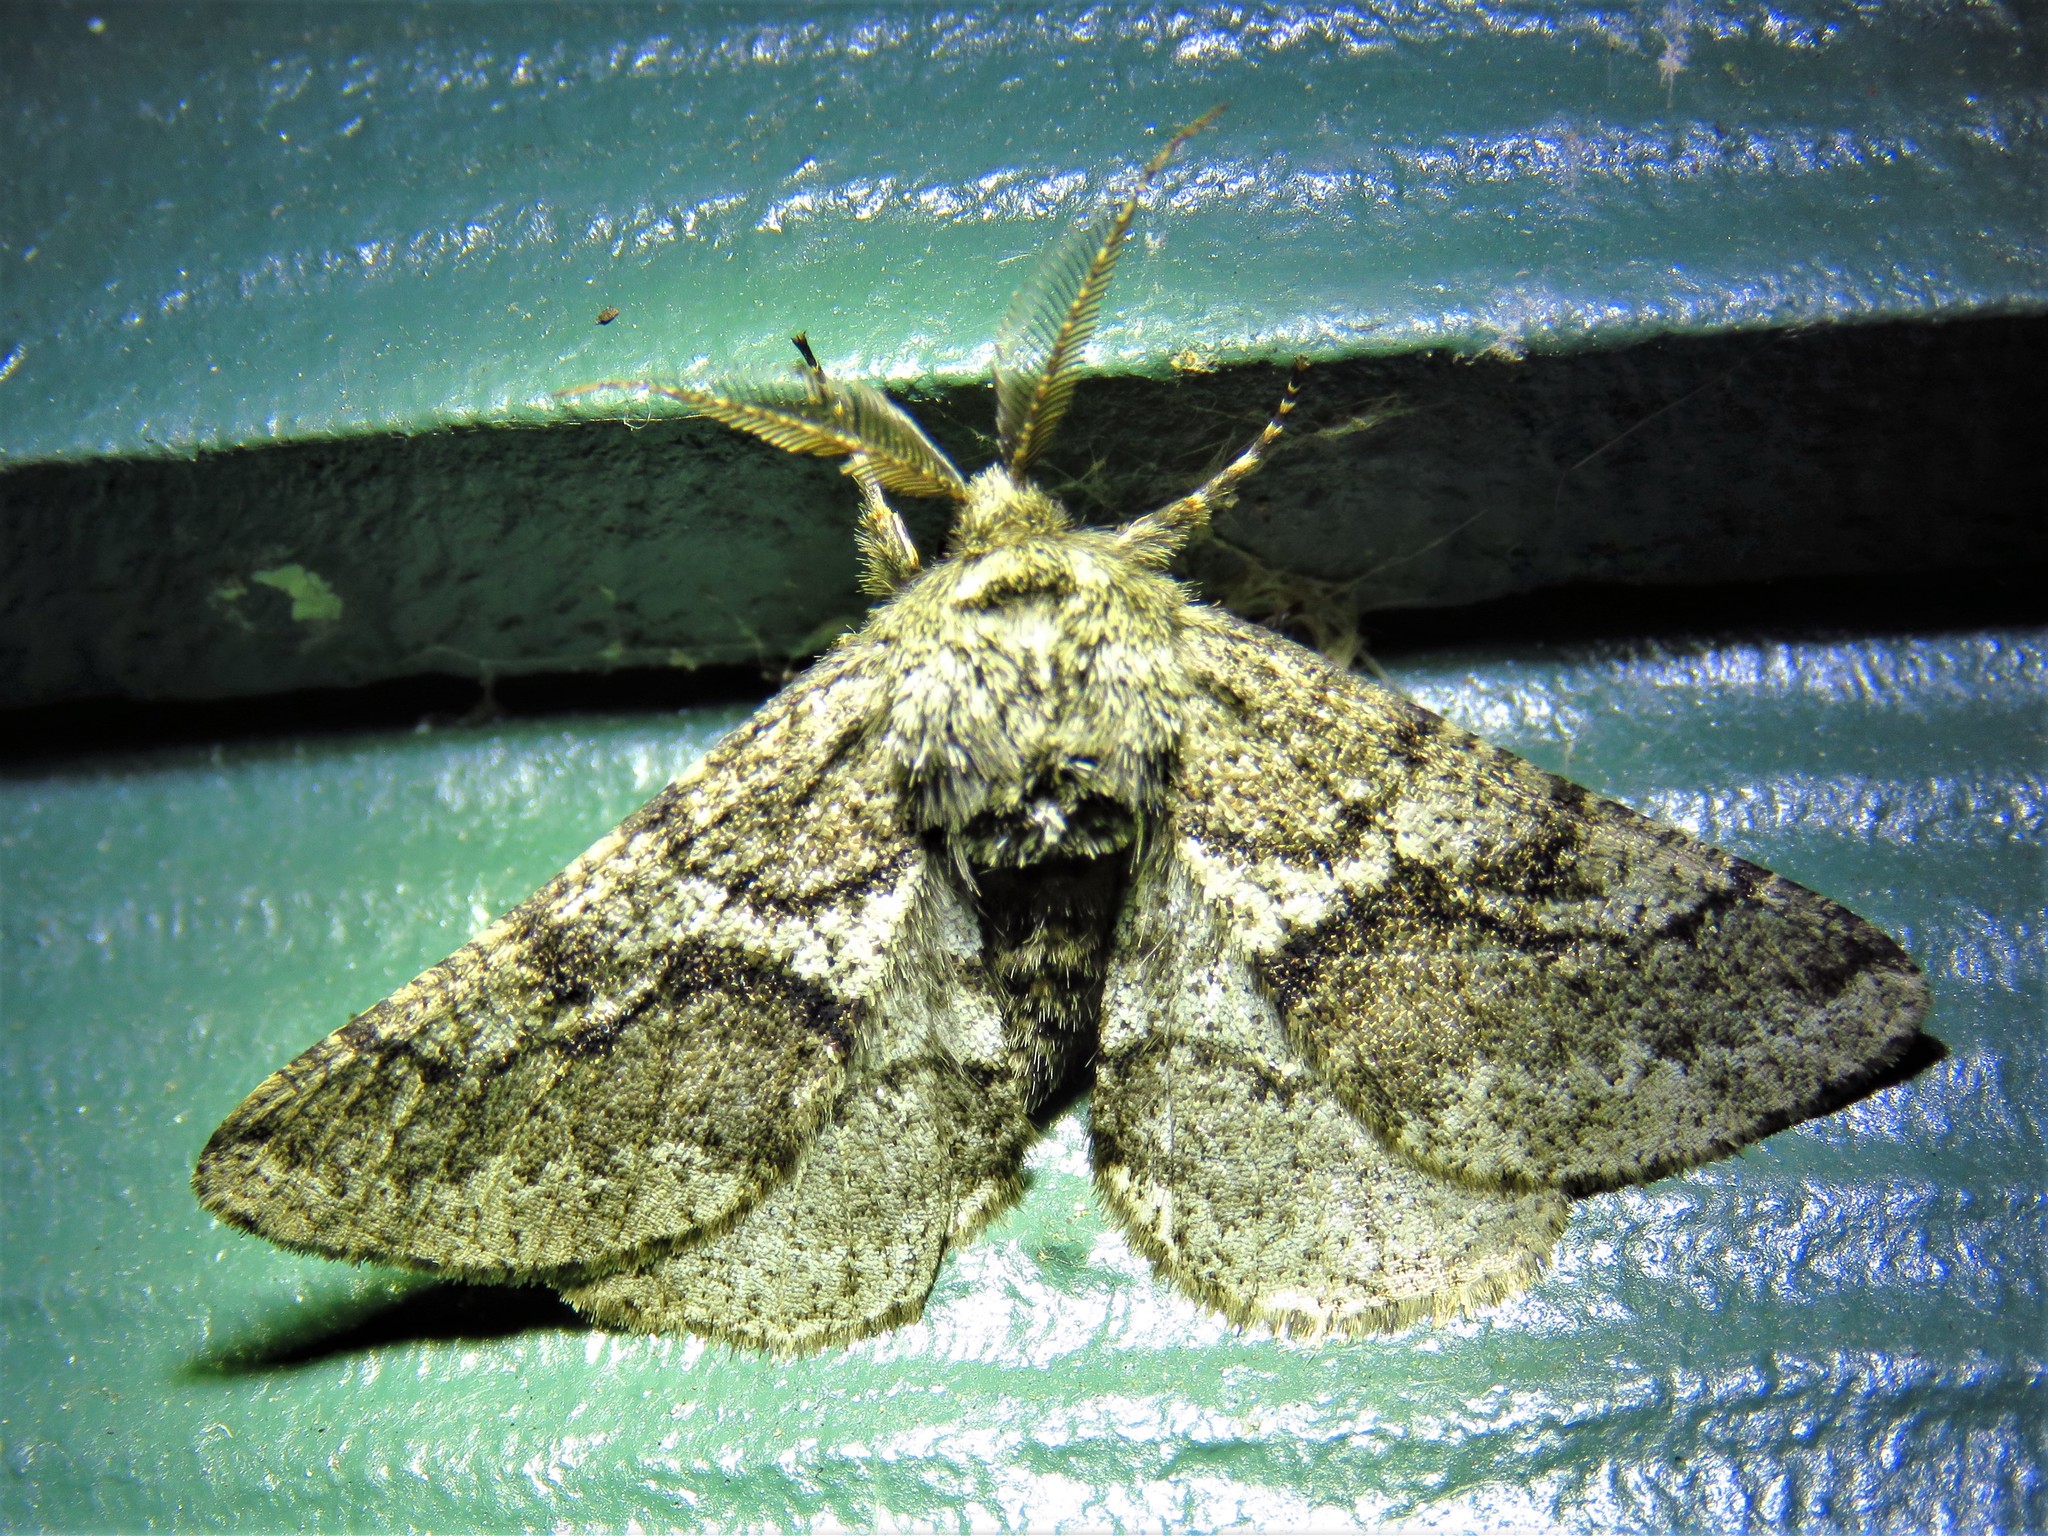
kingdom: Animalia
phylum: Arthropoda
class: Insecta
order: Lepidoptera
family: Geometridae
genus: Lycia
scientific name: Lycia ypsilon
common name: Wooly gray
